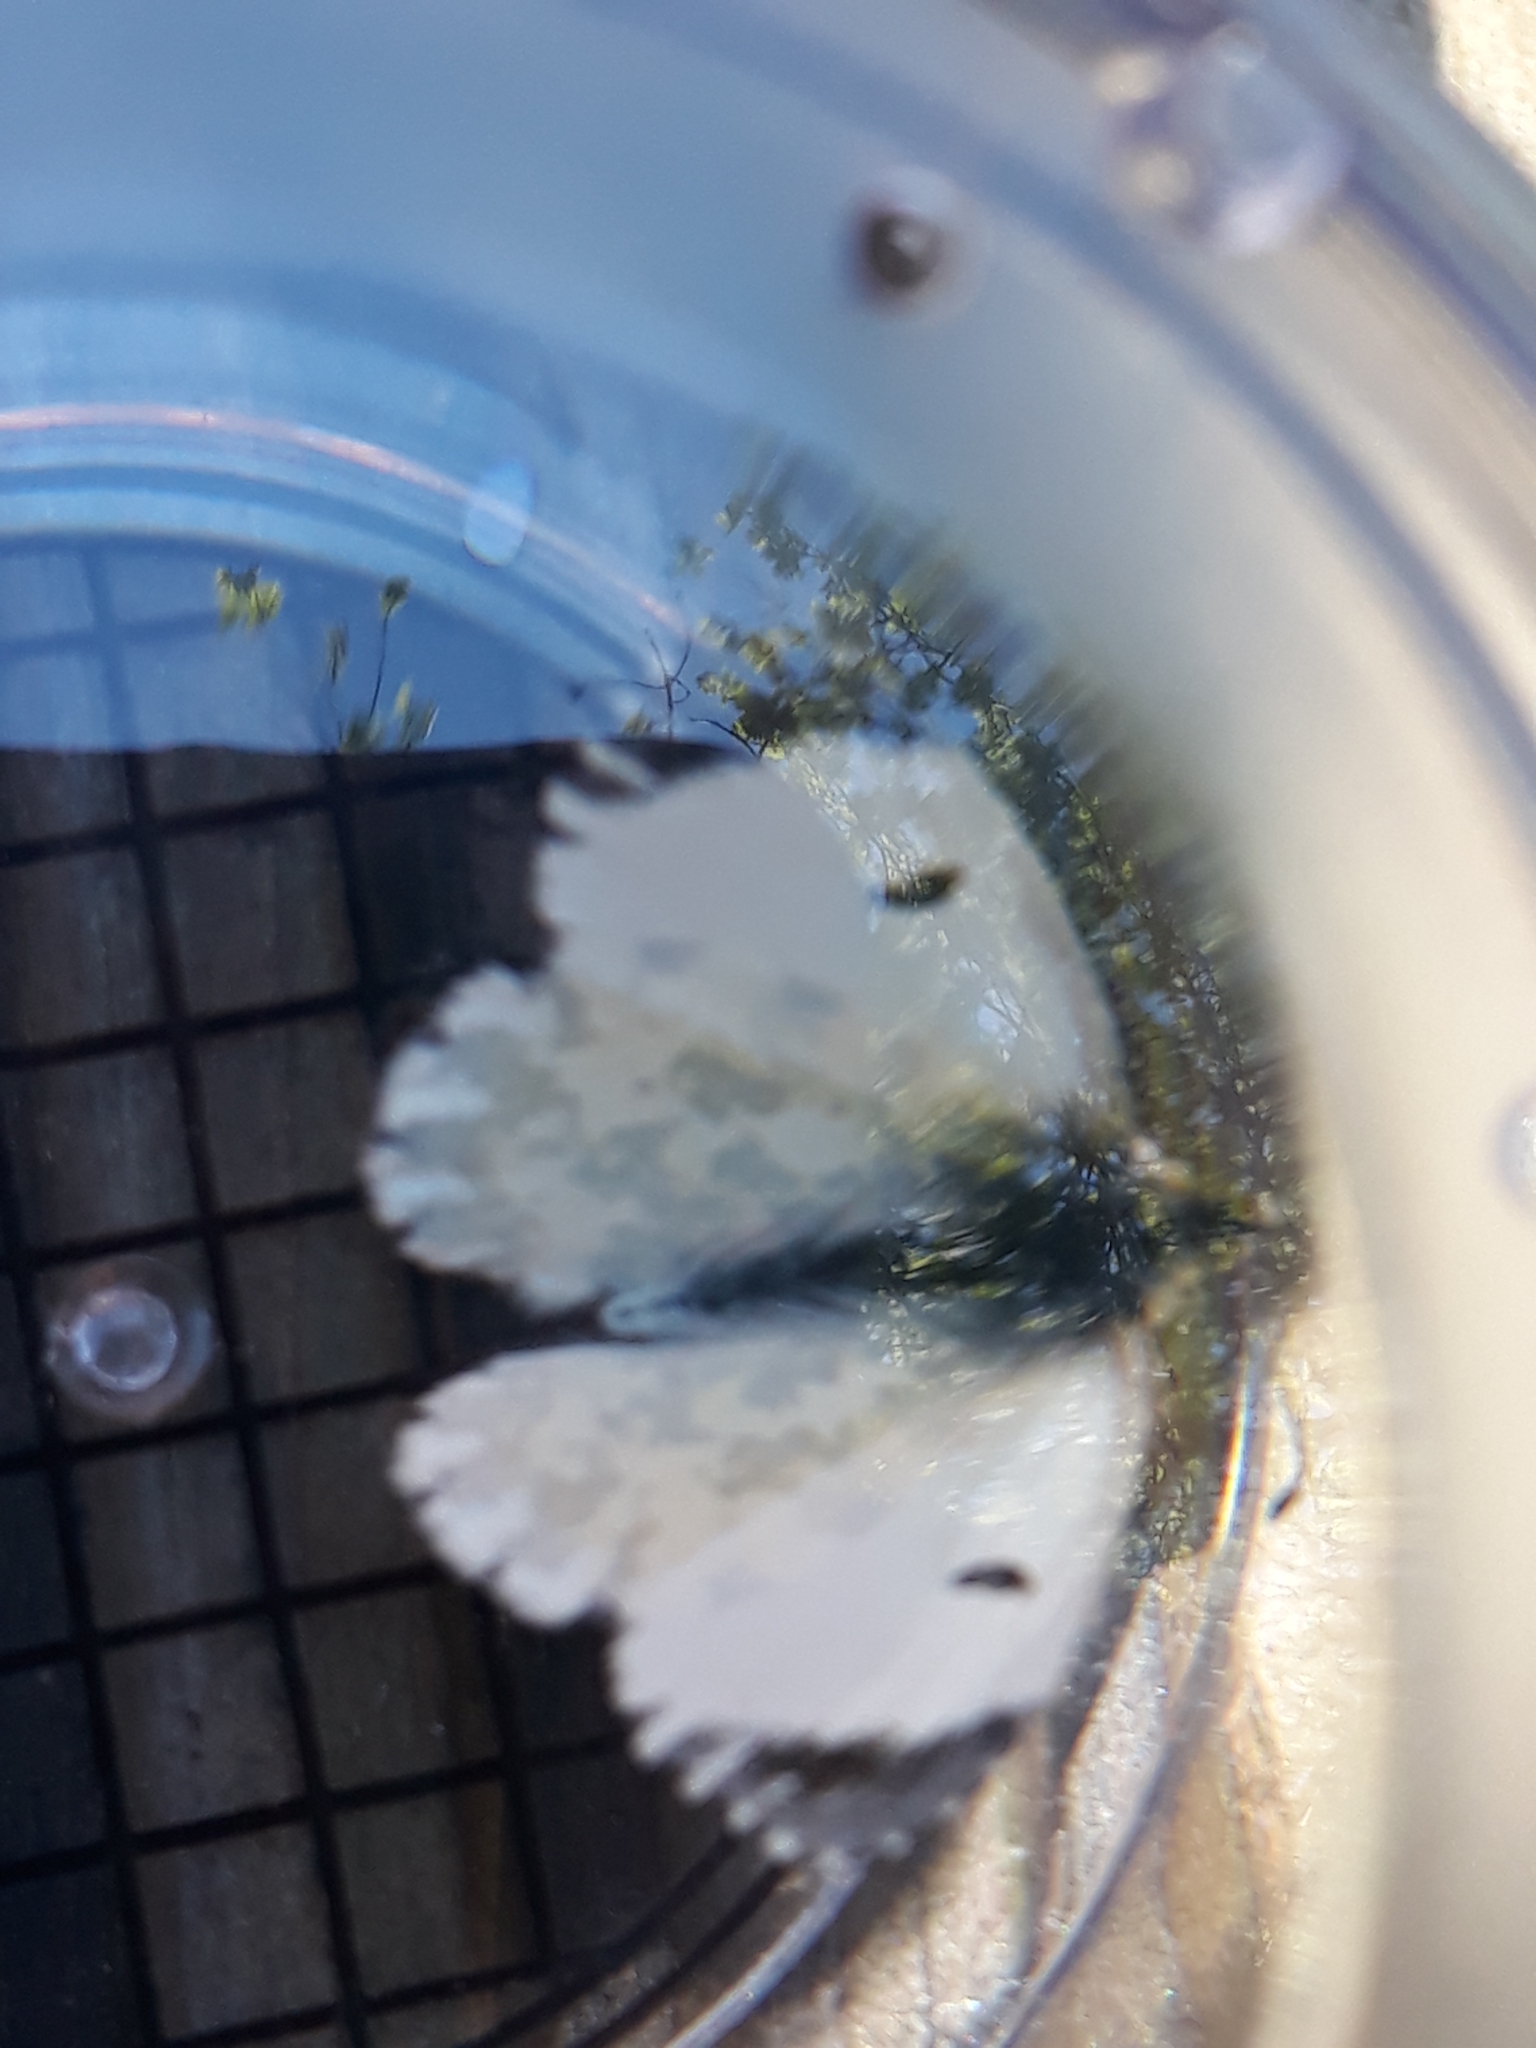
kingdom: Animalia
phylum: Arthropoda
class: Insecta
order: Lepidoptera
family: Pieridae
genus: Anthocharis
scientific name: Anthocharis cardamines
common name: Orange-tip
